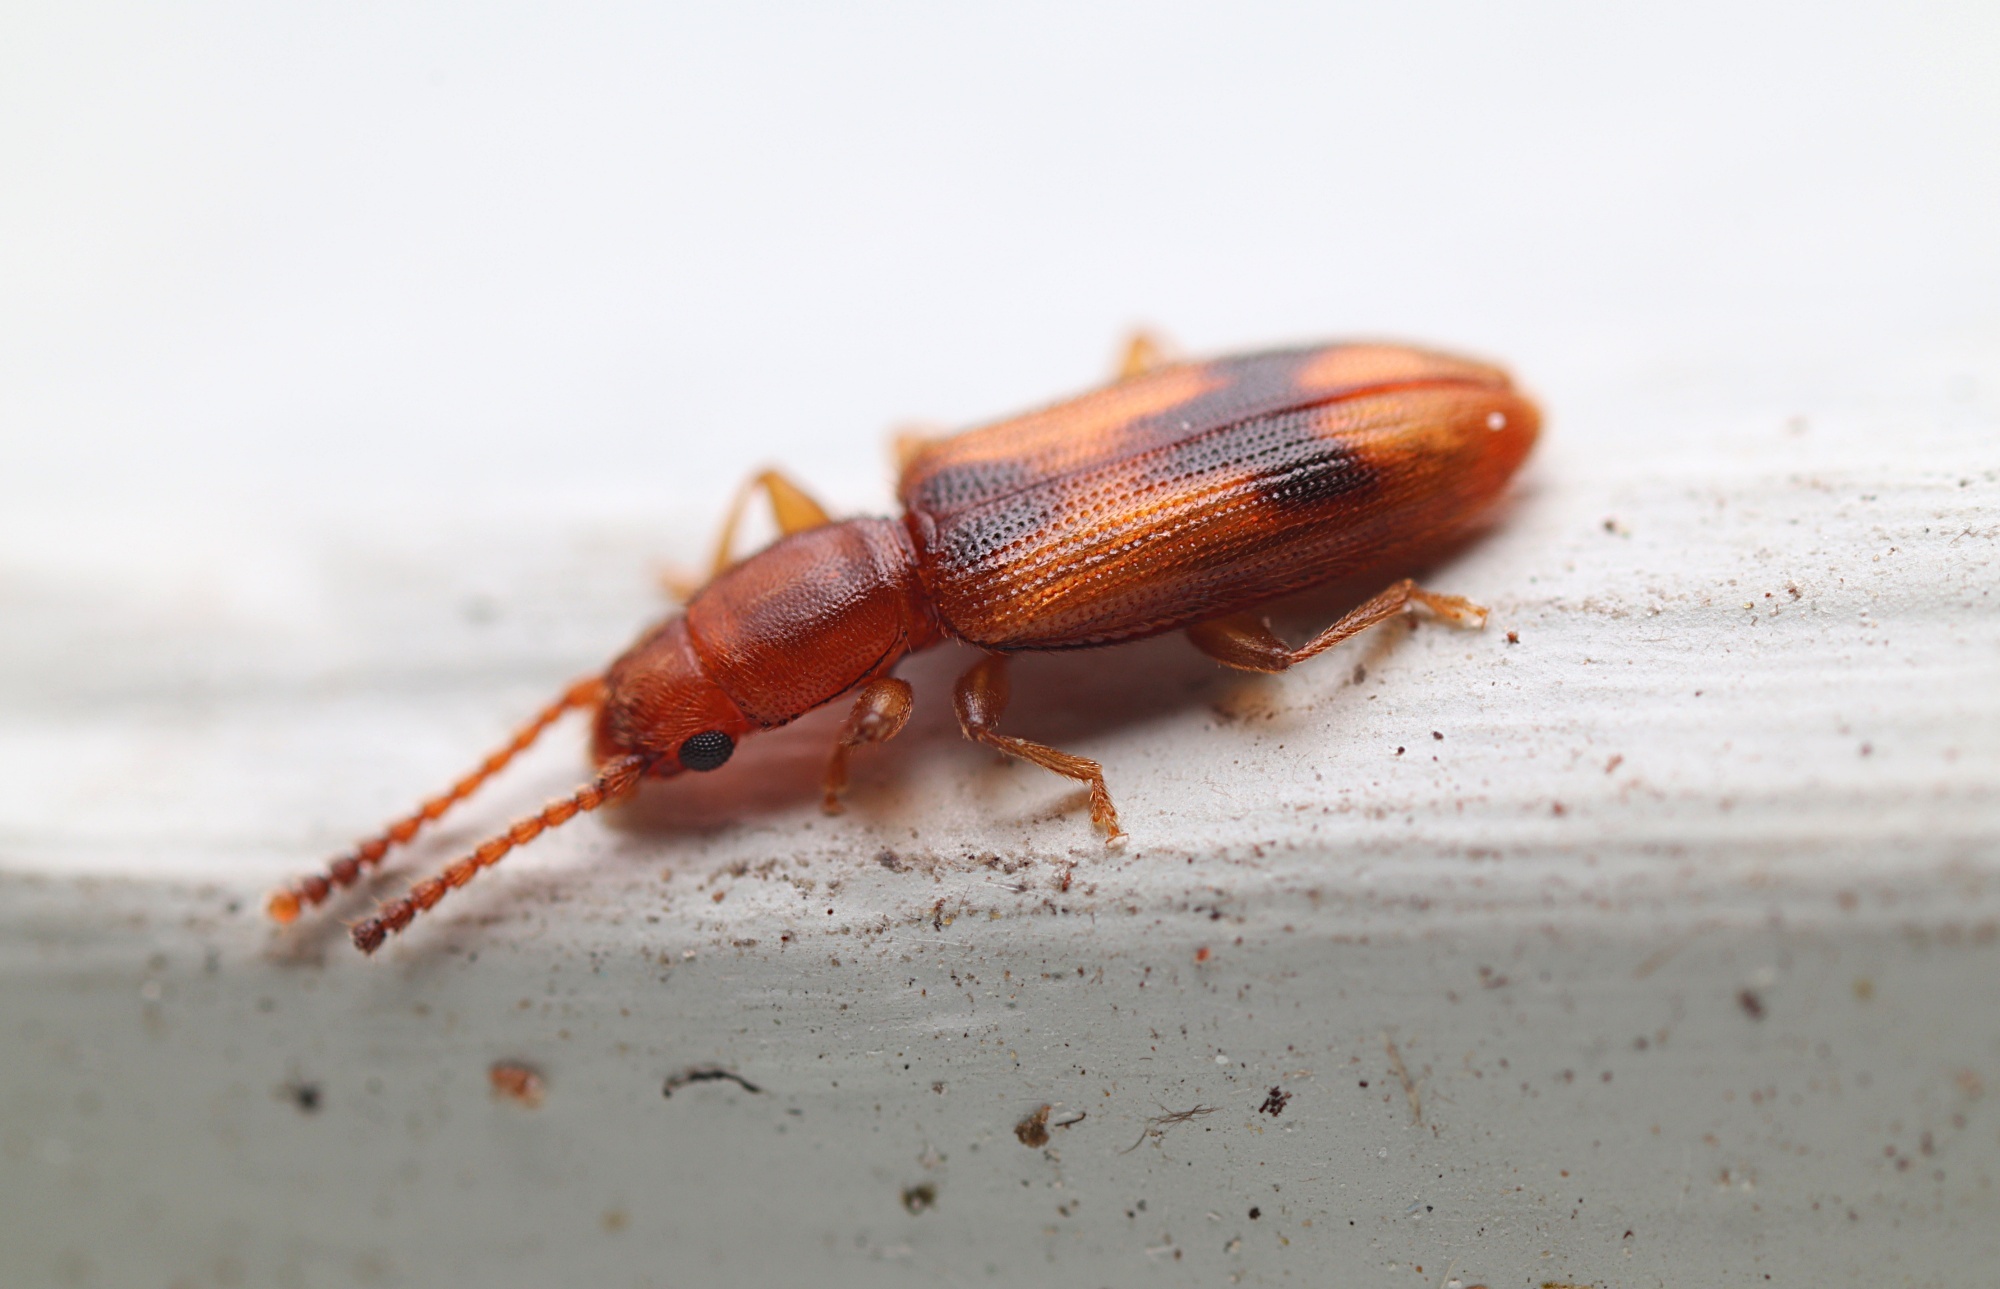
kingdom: Animalia
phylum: Arthropoda
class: Insecta
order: Coleoptera
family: Silvanidae
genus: Cryptamorpha
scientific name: Cryptamorpha desjardinsi
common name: Cryptamorpha
